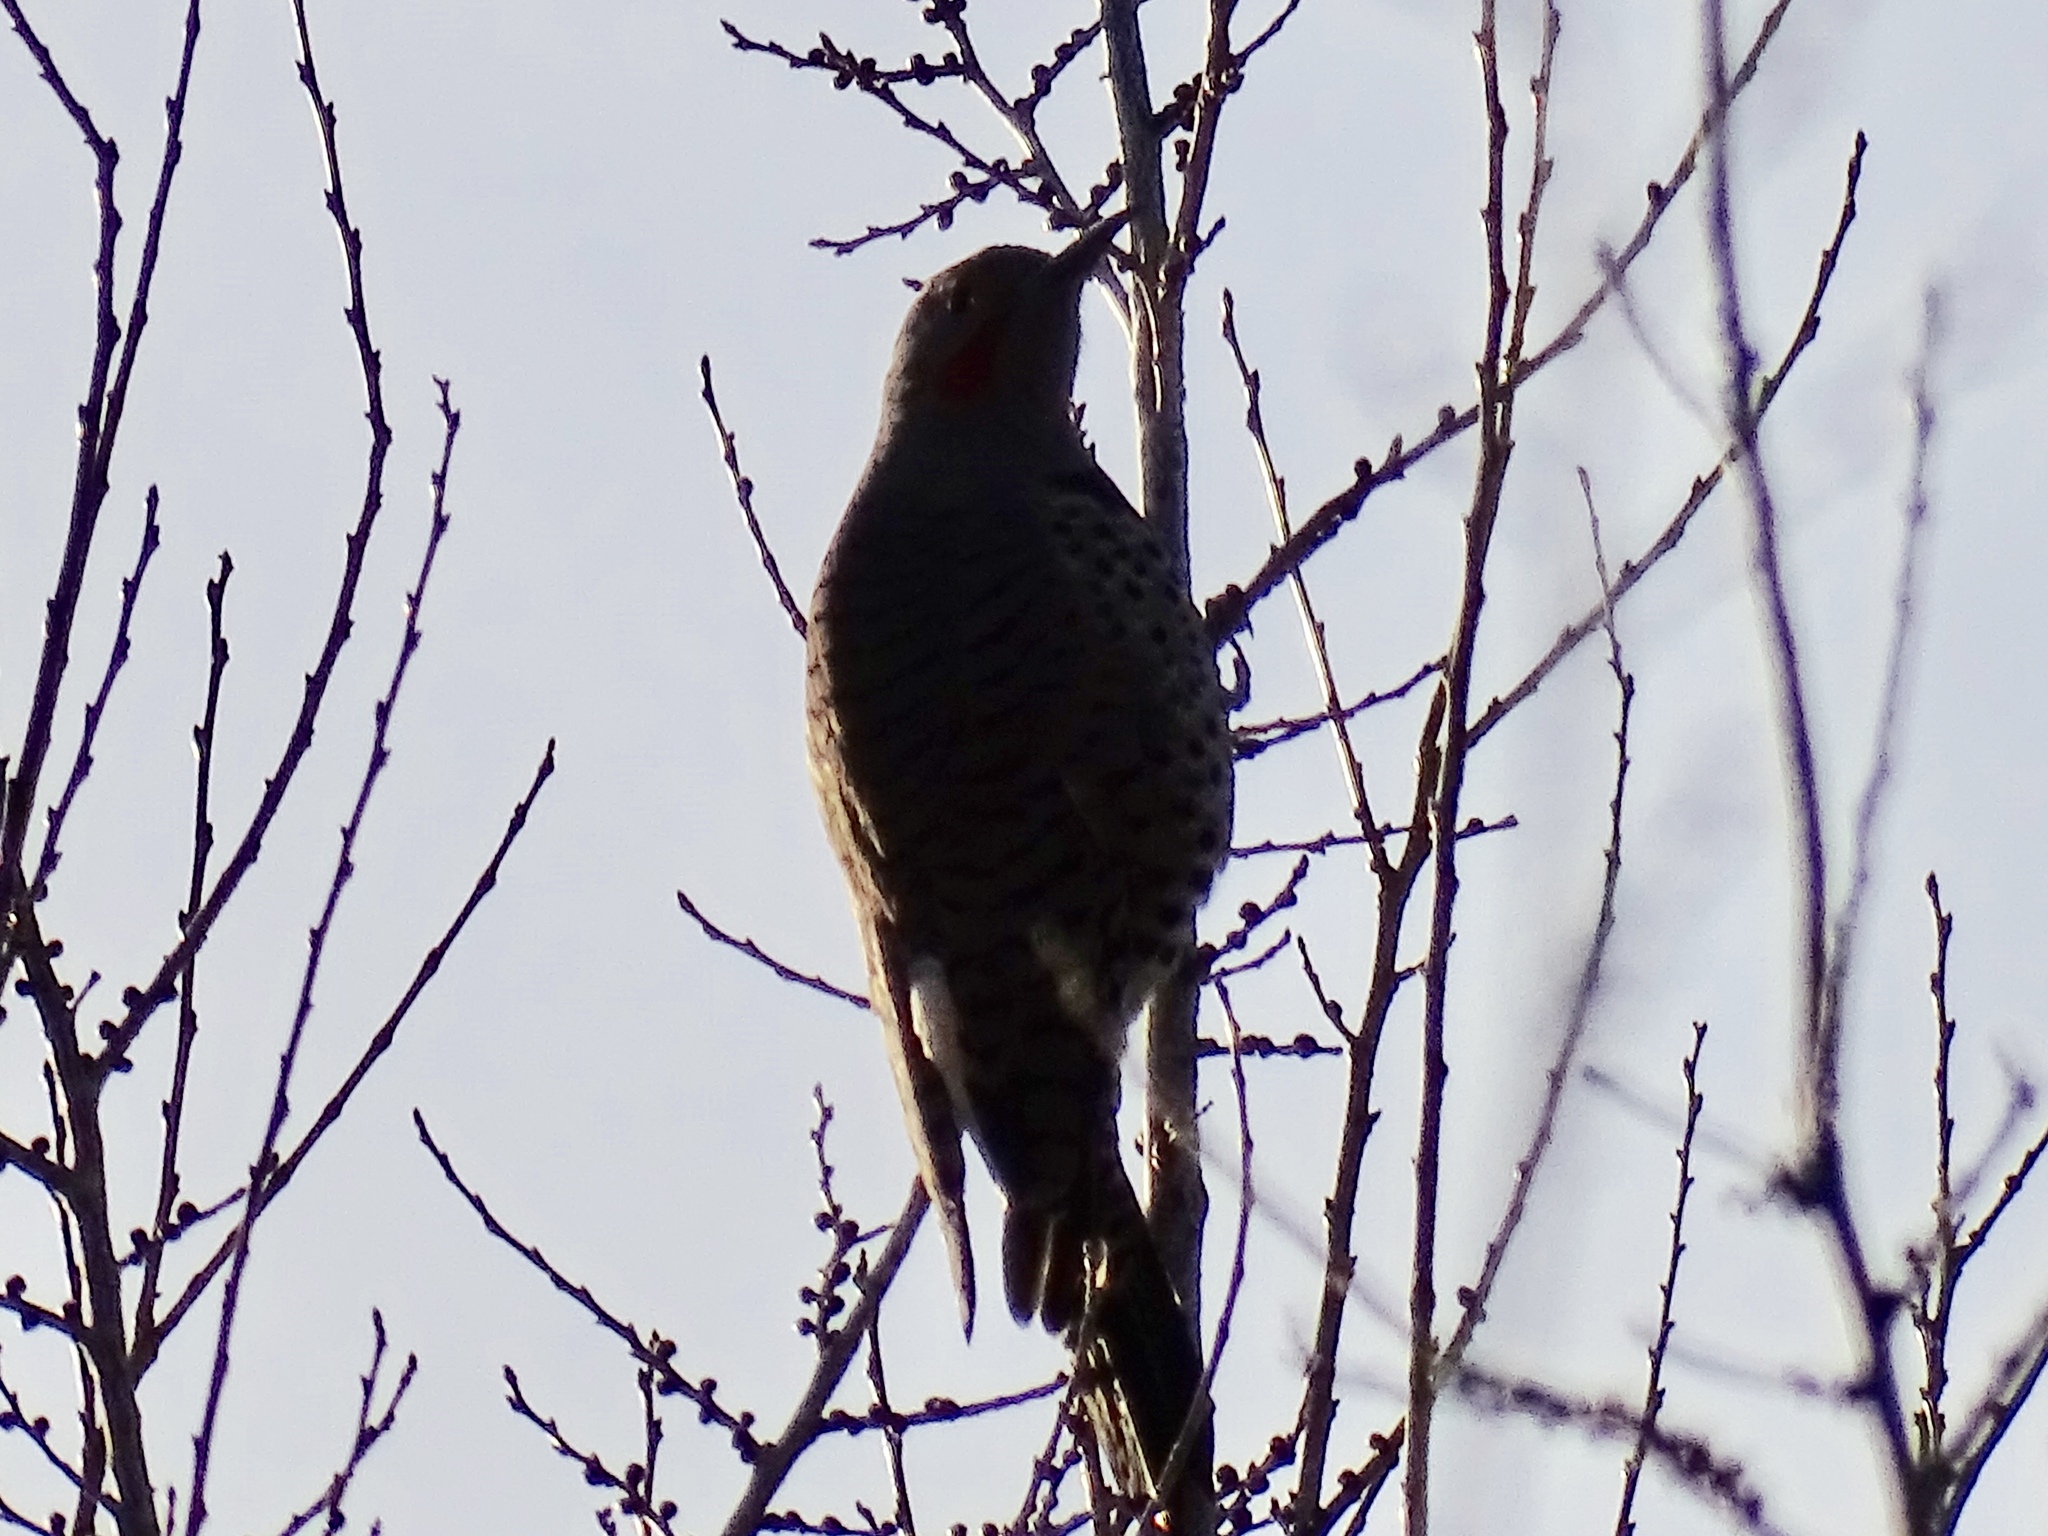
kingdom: Animalia
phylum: Chordata
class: Aves
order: Piciformes
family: Picidae
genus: Colaptes
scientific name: Colaptes auratus
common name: Northern flicker
